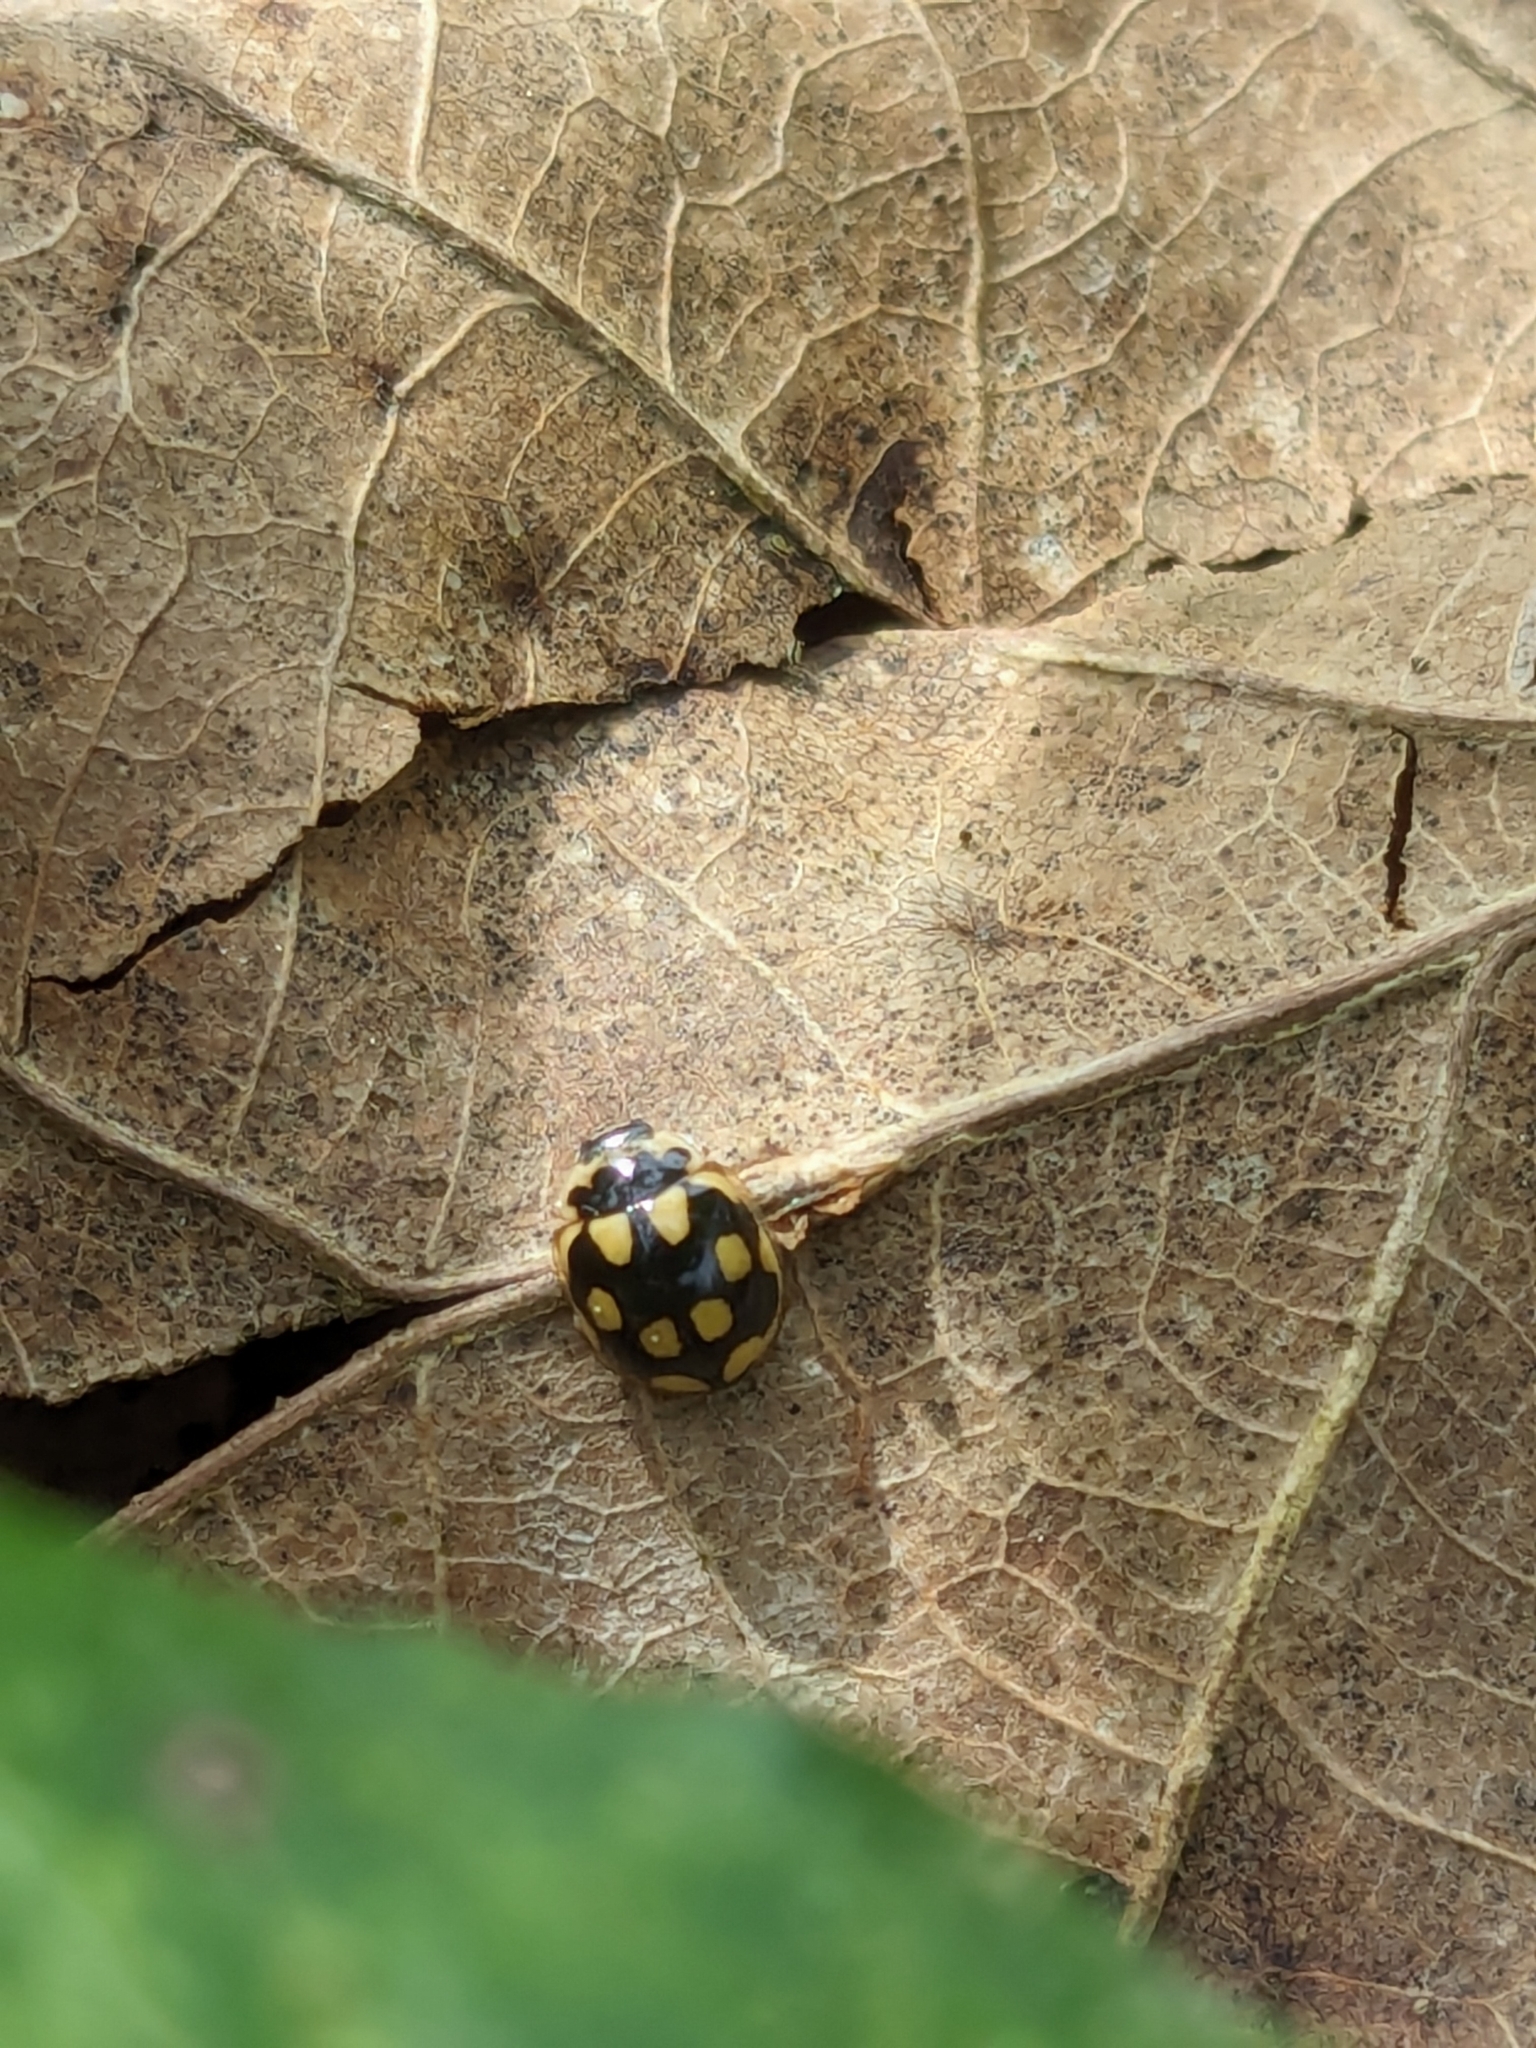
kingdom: Animalia
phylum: Arthropoda
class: Insecta
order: Coleoptera
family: Coccinellidae
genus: Propylaea
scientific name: Propylaea quatuordecimpunctata
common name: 14-spotted ladybird beetle
